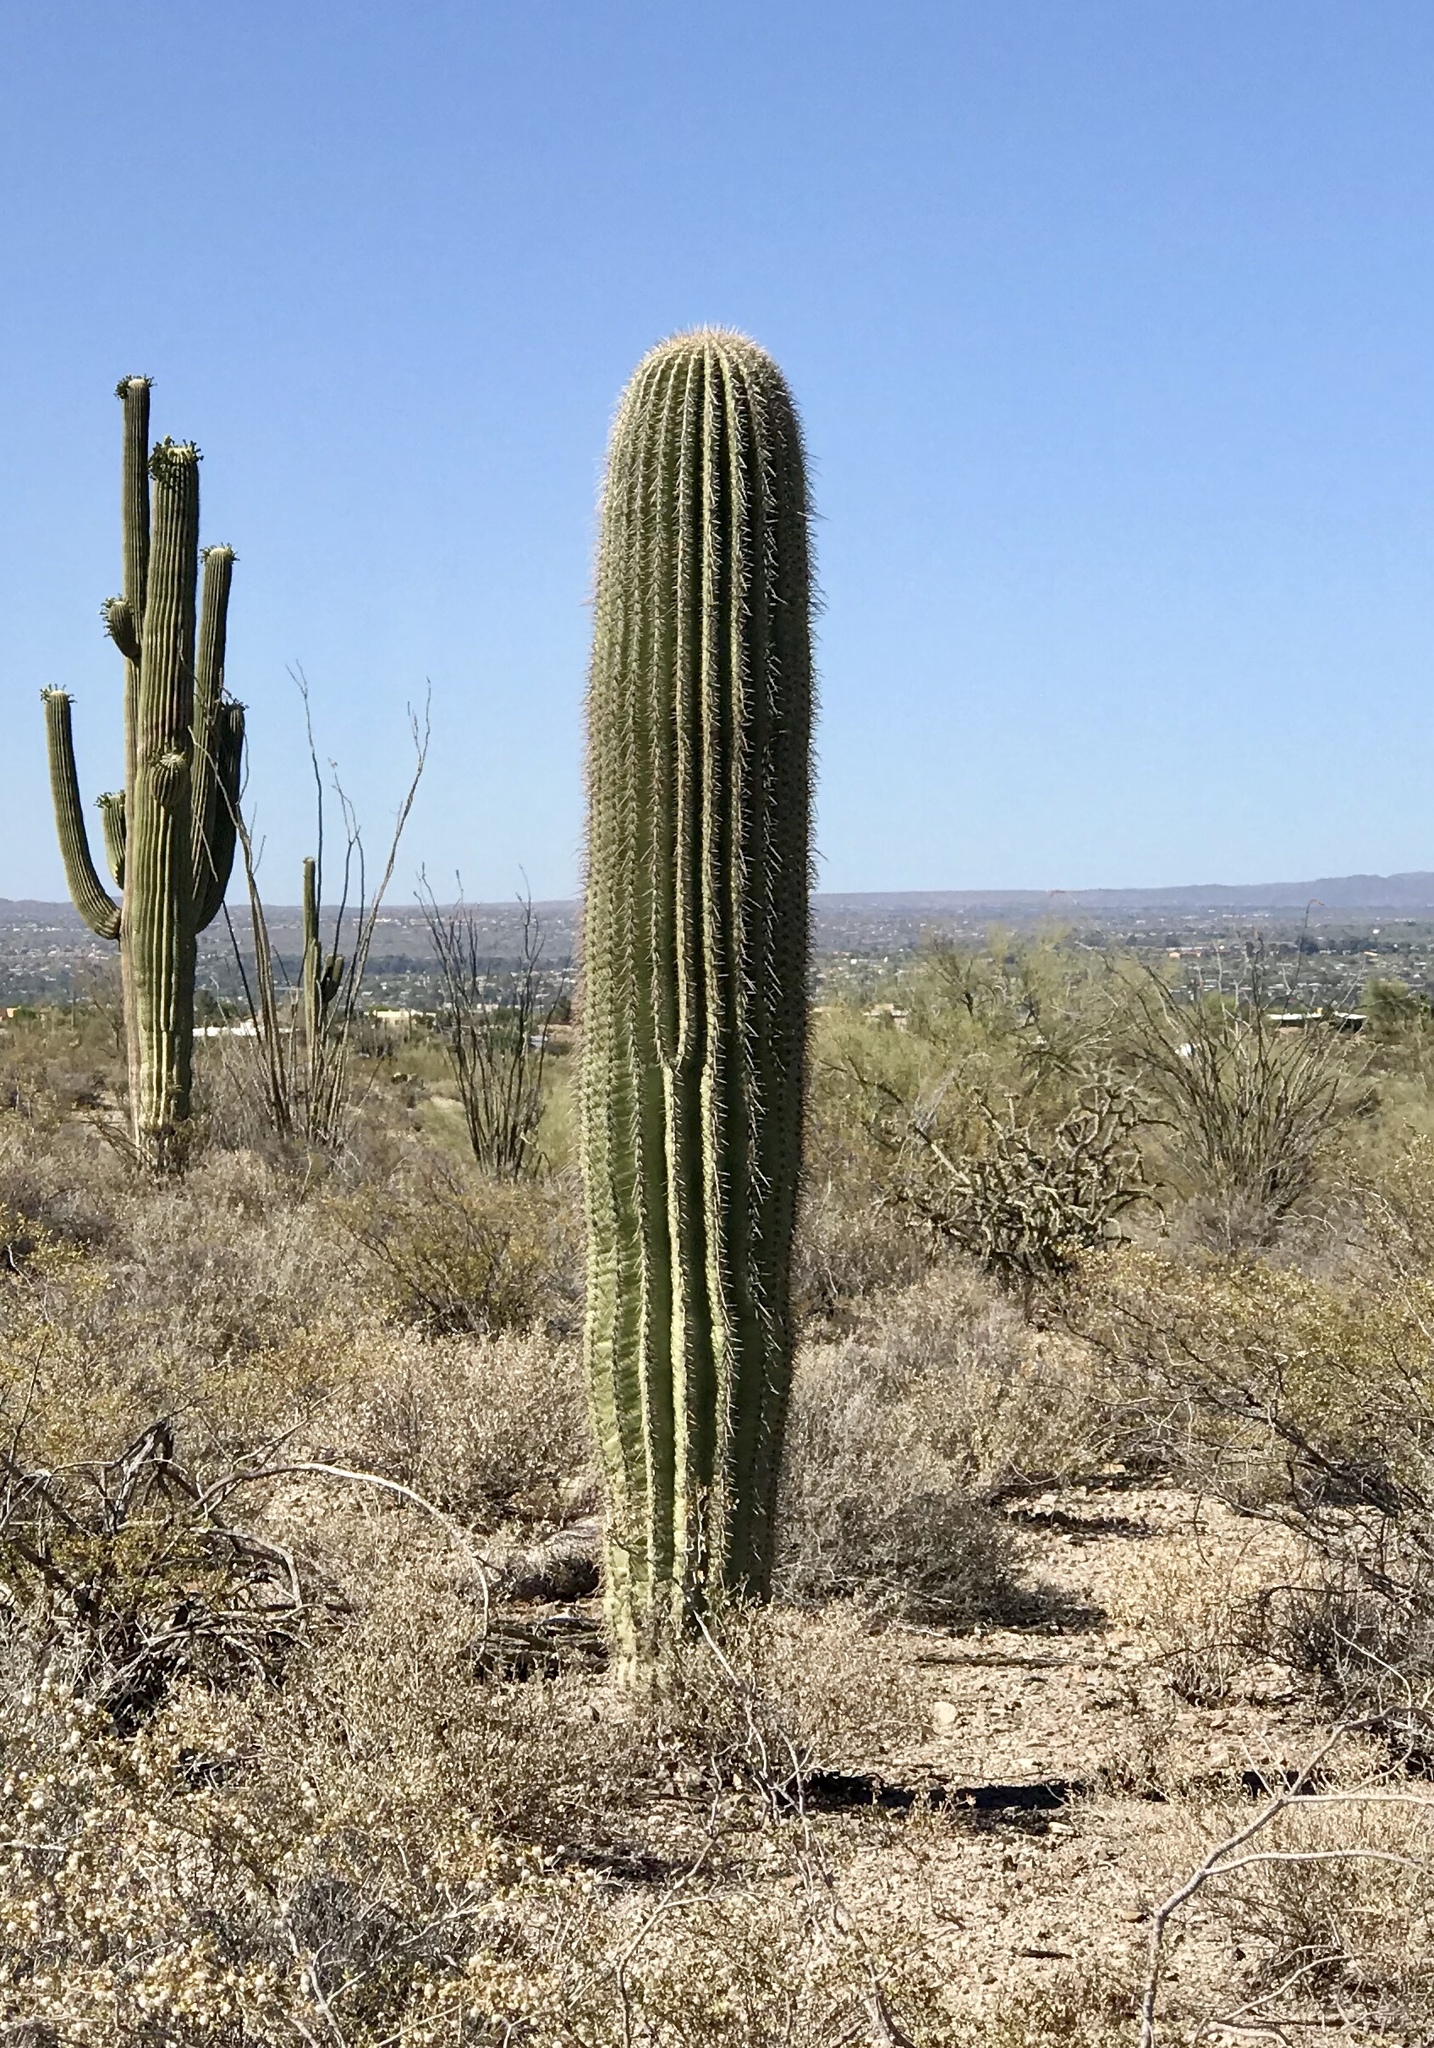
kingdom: Plantae
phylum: Tracheophyta
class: Magnoliopsida
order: Caryophyllales
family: Cactaceae
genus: Carnegiea
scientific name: Carnegiea gigantea
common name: Saguaro
